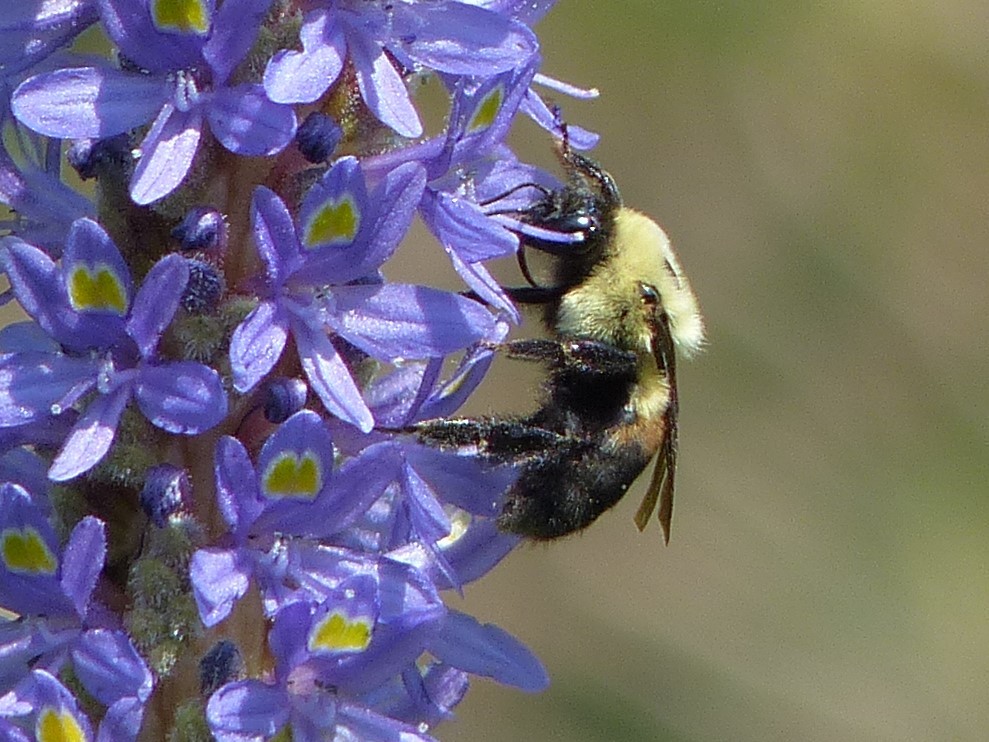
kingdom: Animalia
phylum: Arthropoda
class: Insecta
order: Hymenoptera
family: Apidae
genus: Bombus
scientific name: Bombus griseocollis
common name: Brown-belted bumble bee
